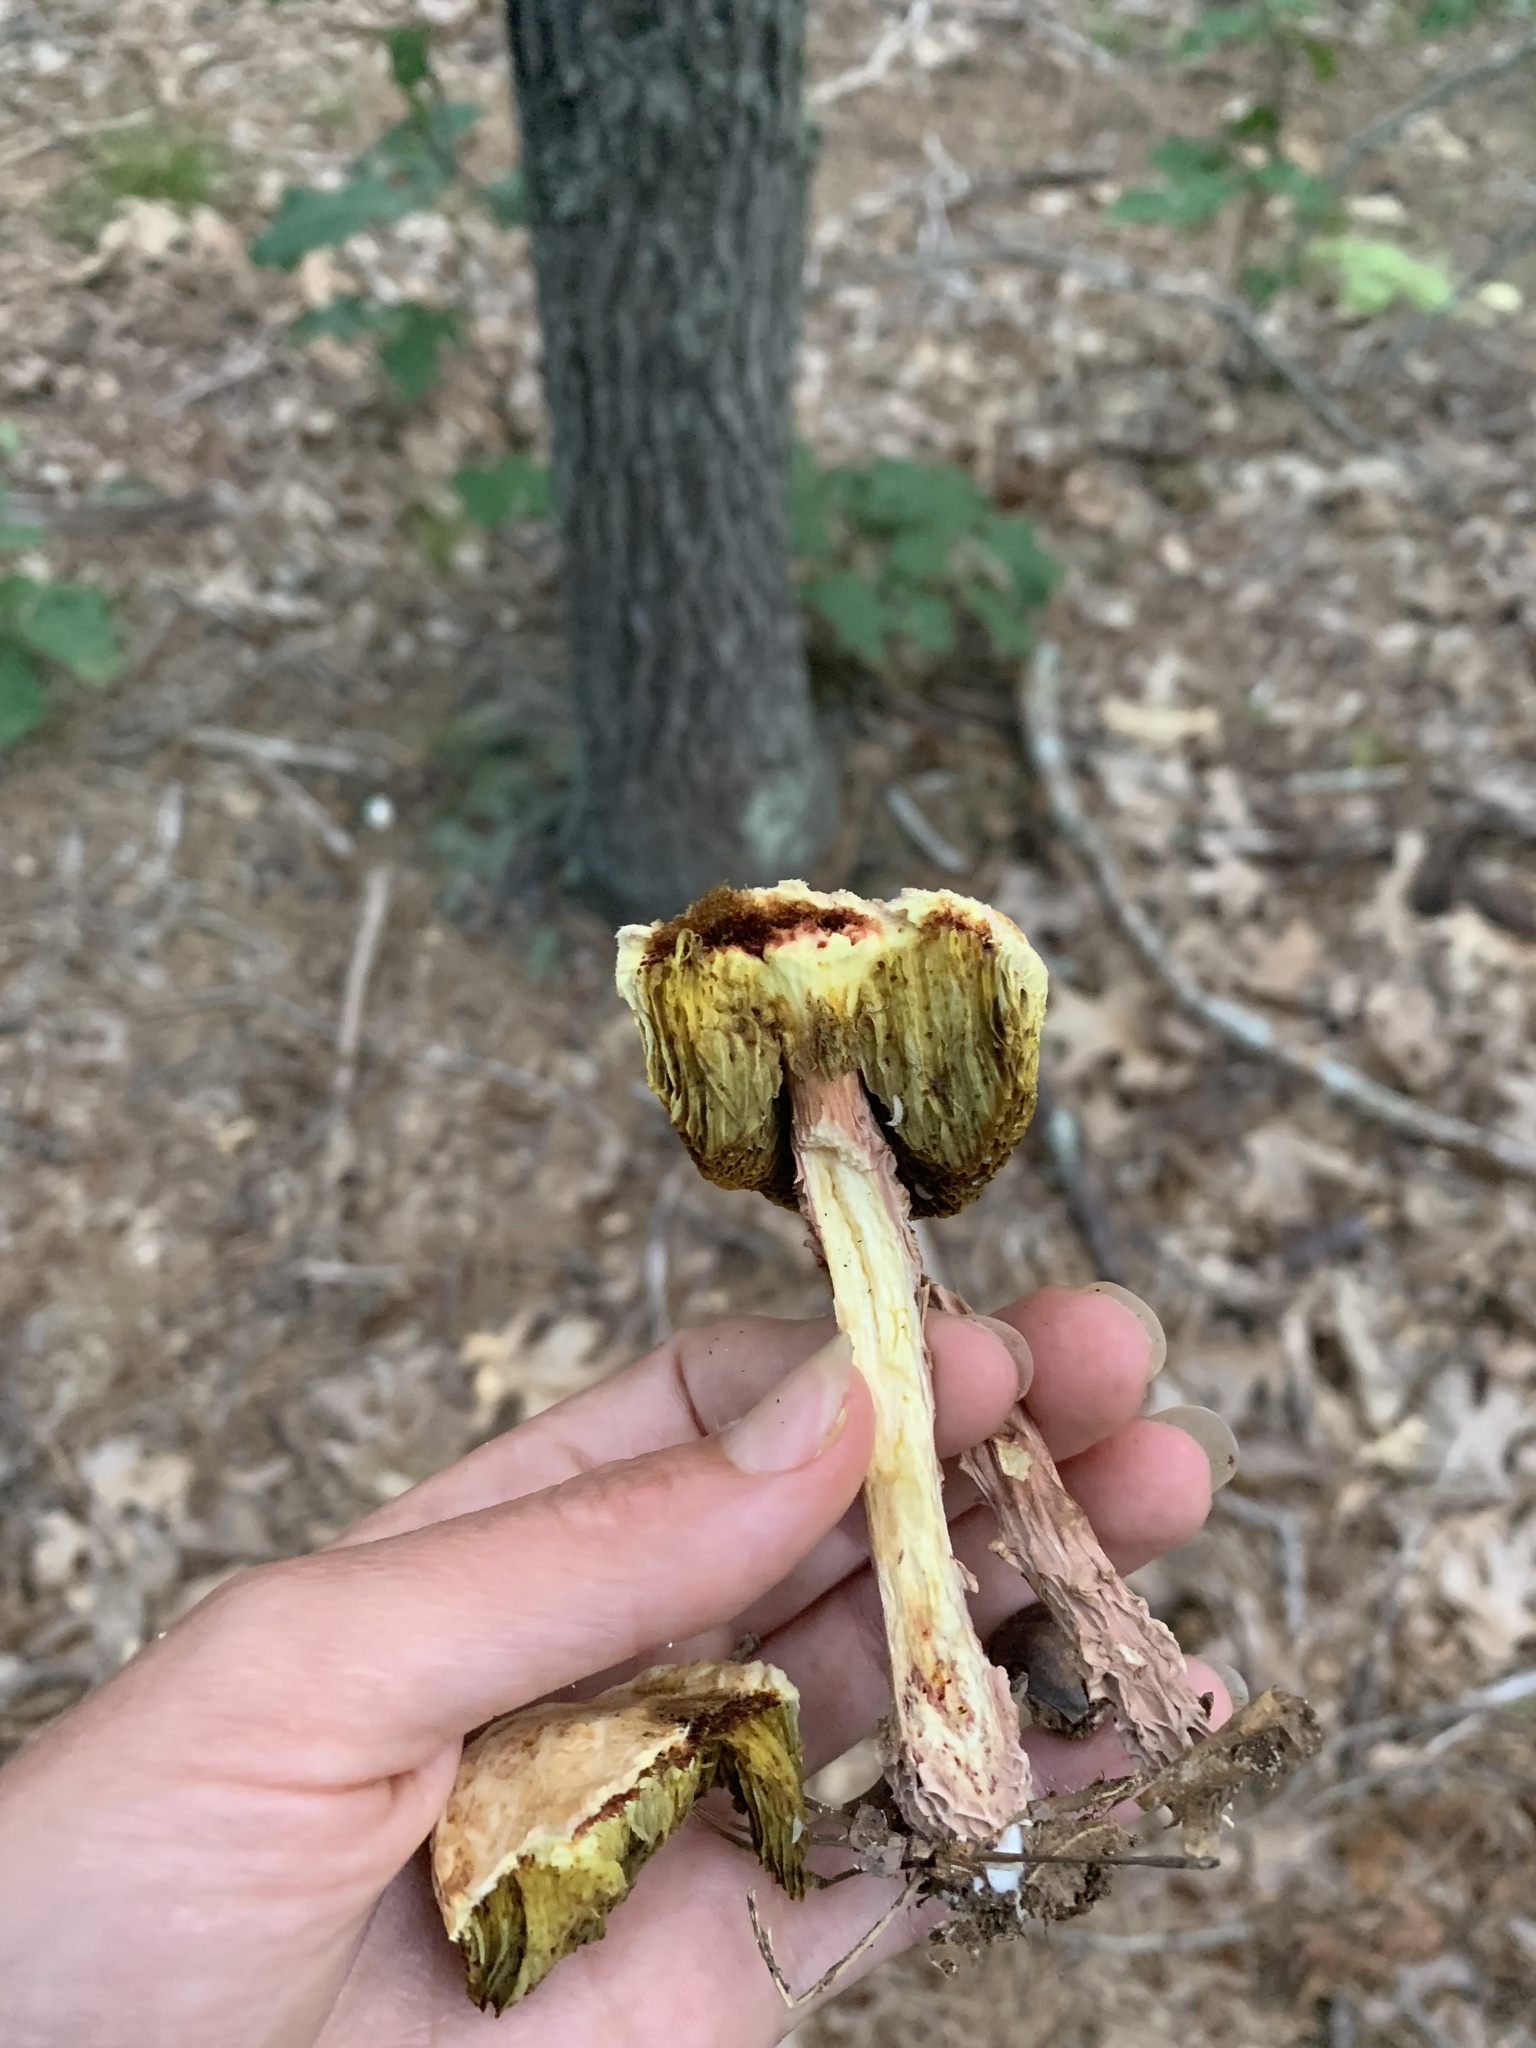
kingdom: Fungi
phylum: Basidiomycota
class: Agaricomycetes
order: Boletales
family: Boletaceae
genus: Aureoboletus
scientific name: Aureoboletus russellii
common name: Russell's bolete
